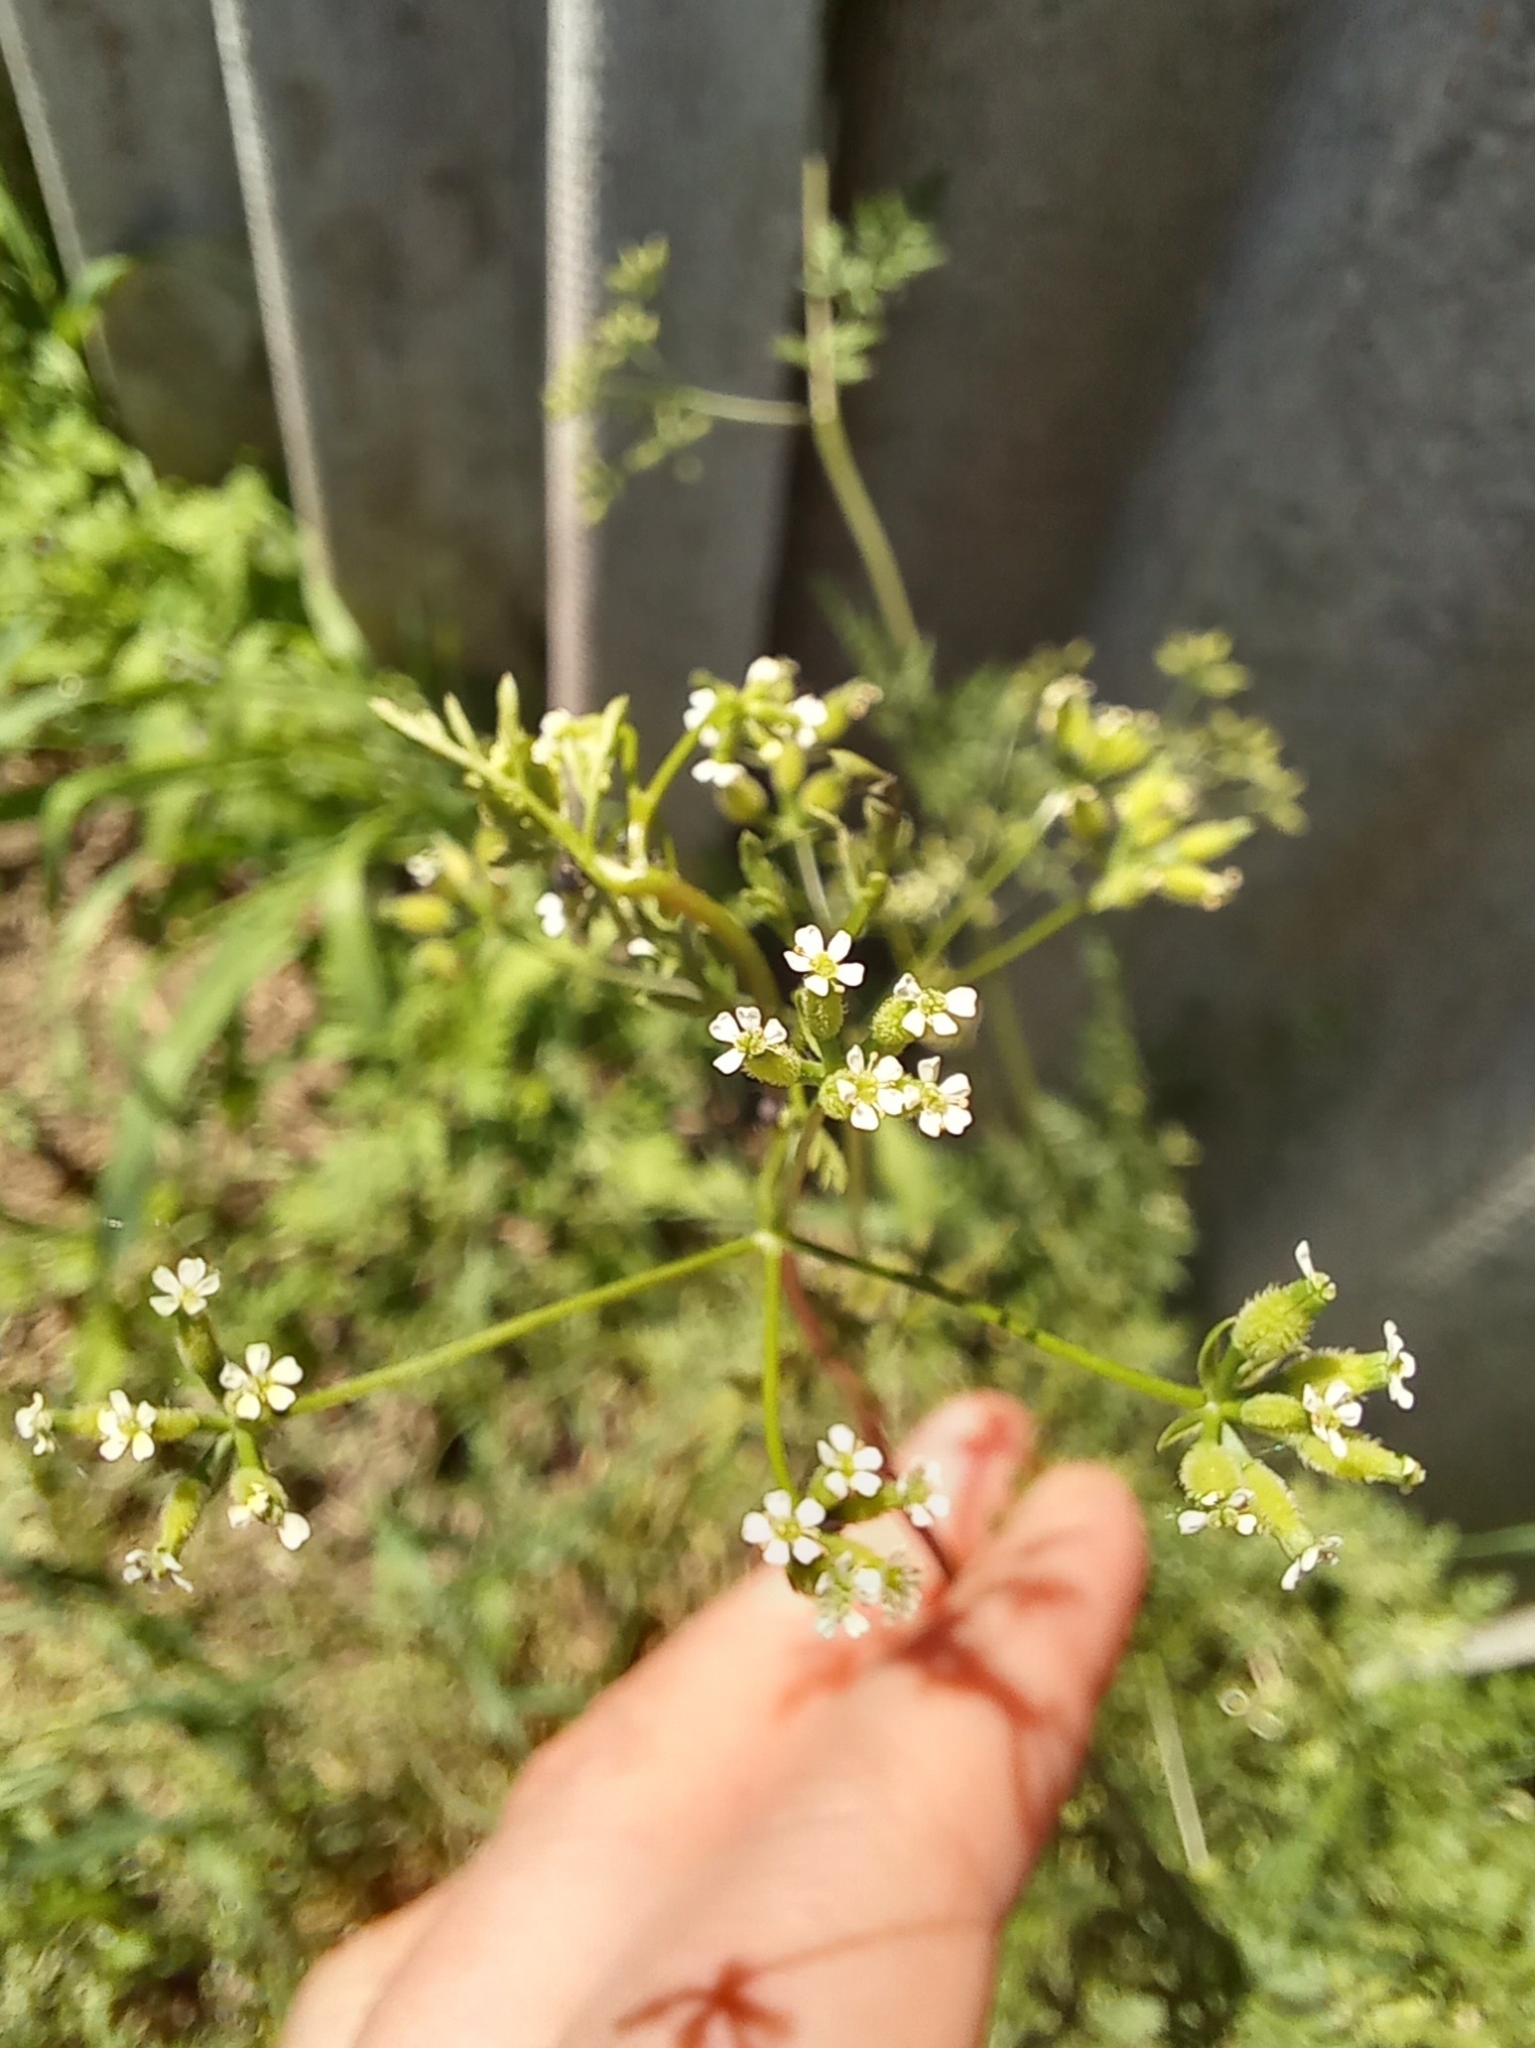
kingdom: Plantae
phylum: Tracheophyta
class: Magnoliopsida
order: Apiales
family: Apiaceae
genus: Anthriscus
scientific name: Anthriscus caucalis
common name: Bur chervil
